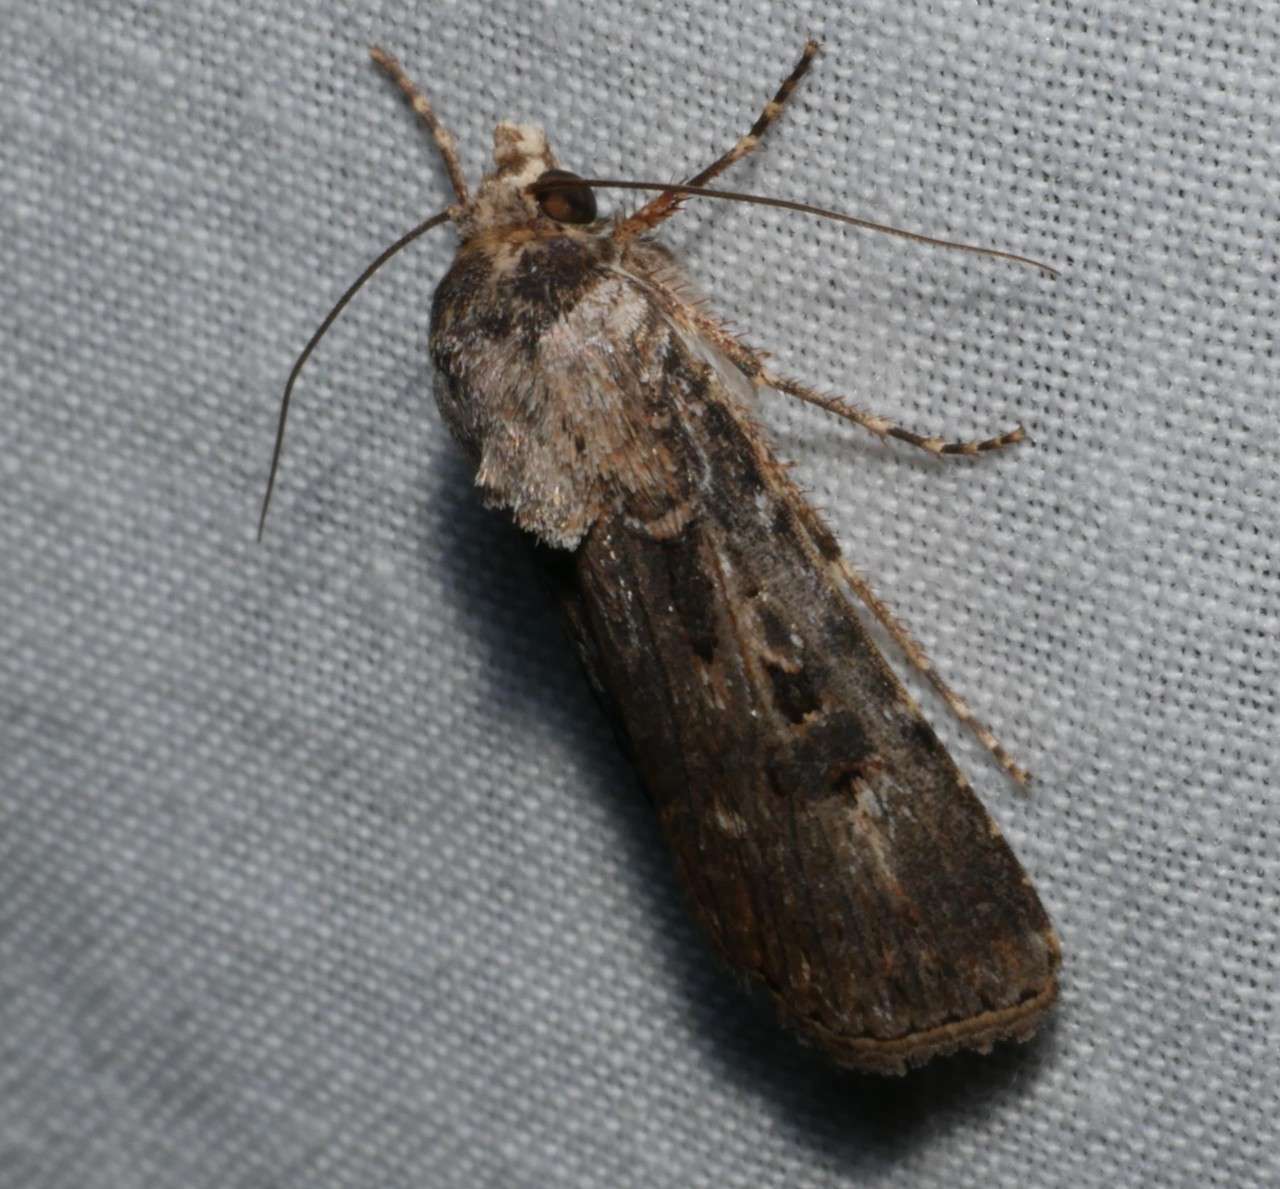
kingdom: Animalia
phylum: Arthropoda
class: Insecta
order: Lepidoptera
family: Noctuidae
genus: Agrotis
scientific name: Agrotis munda
